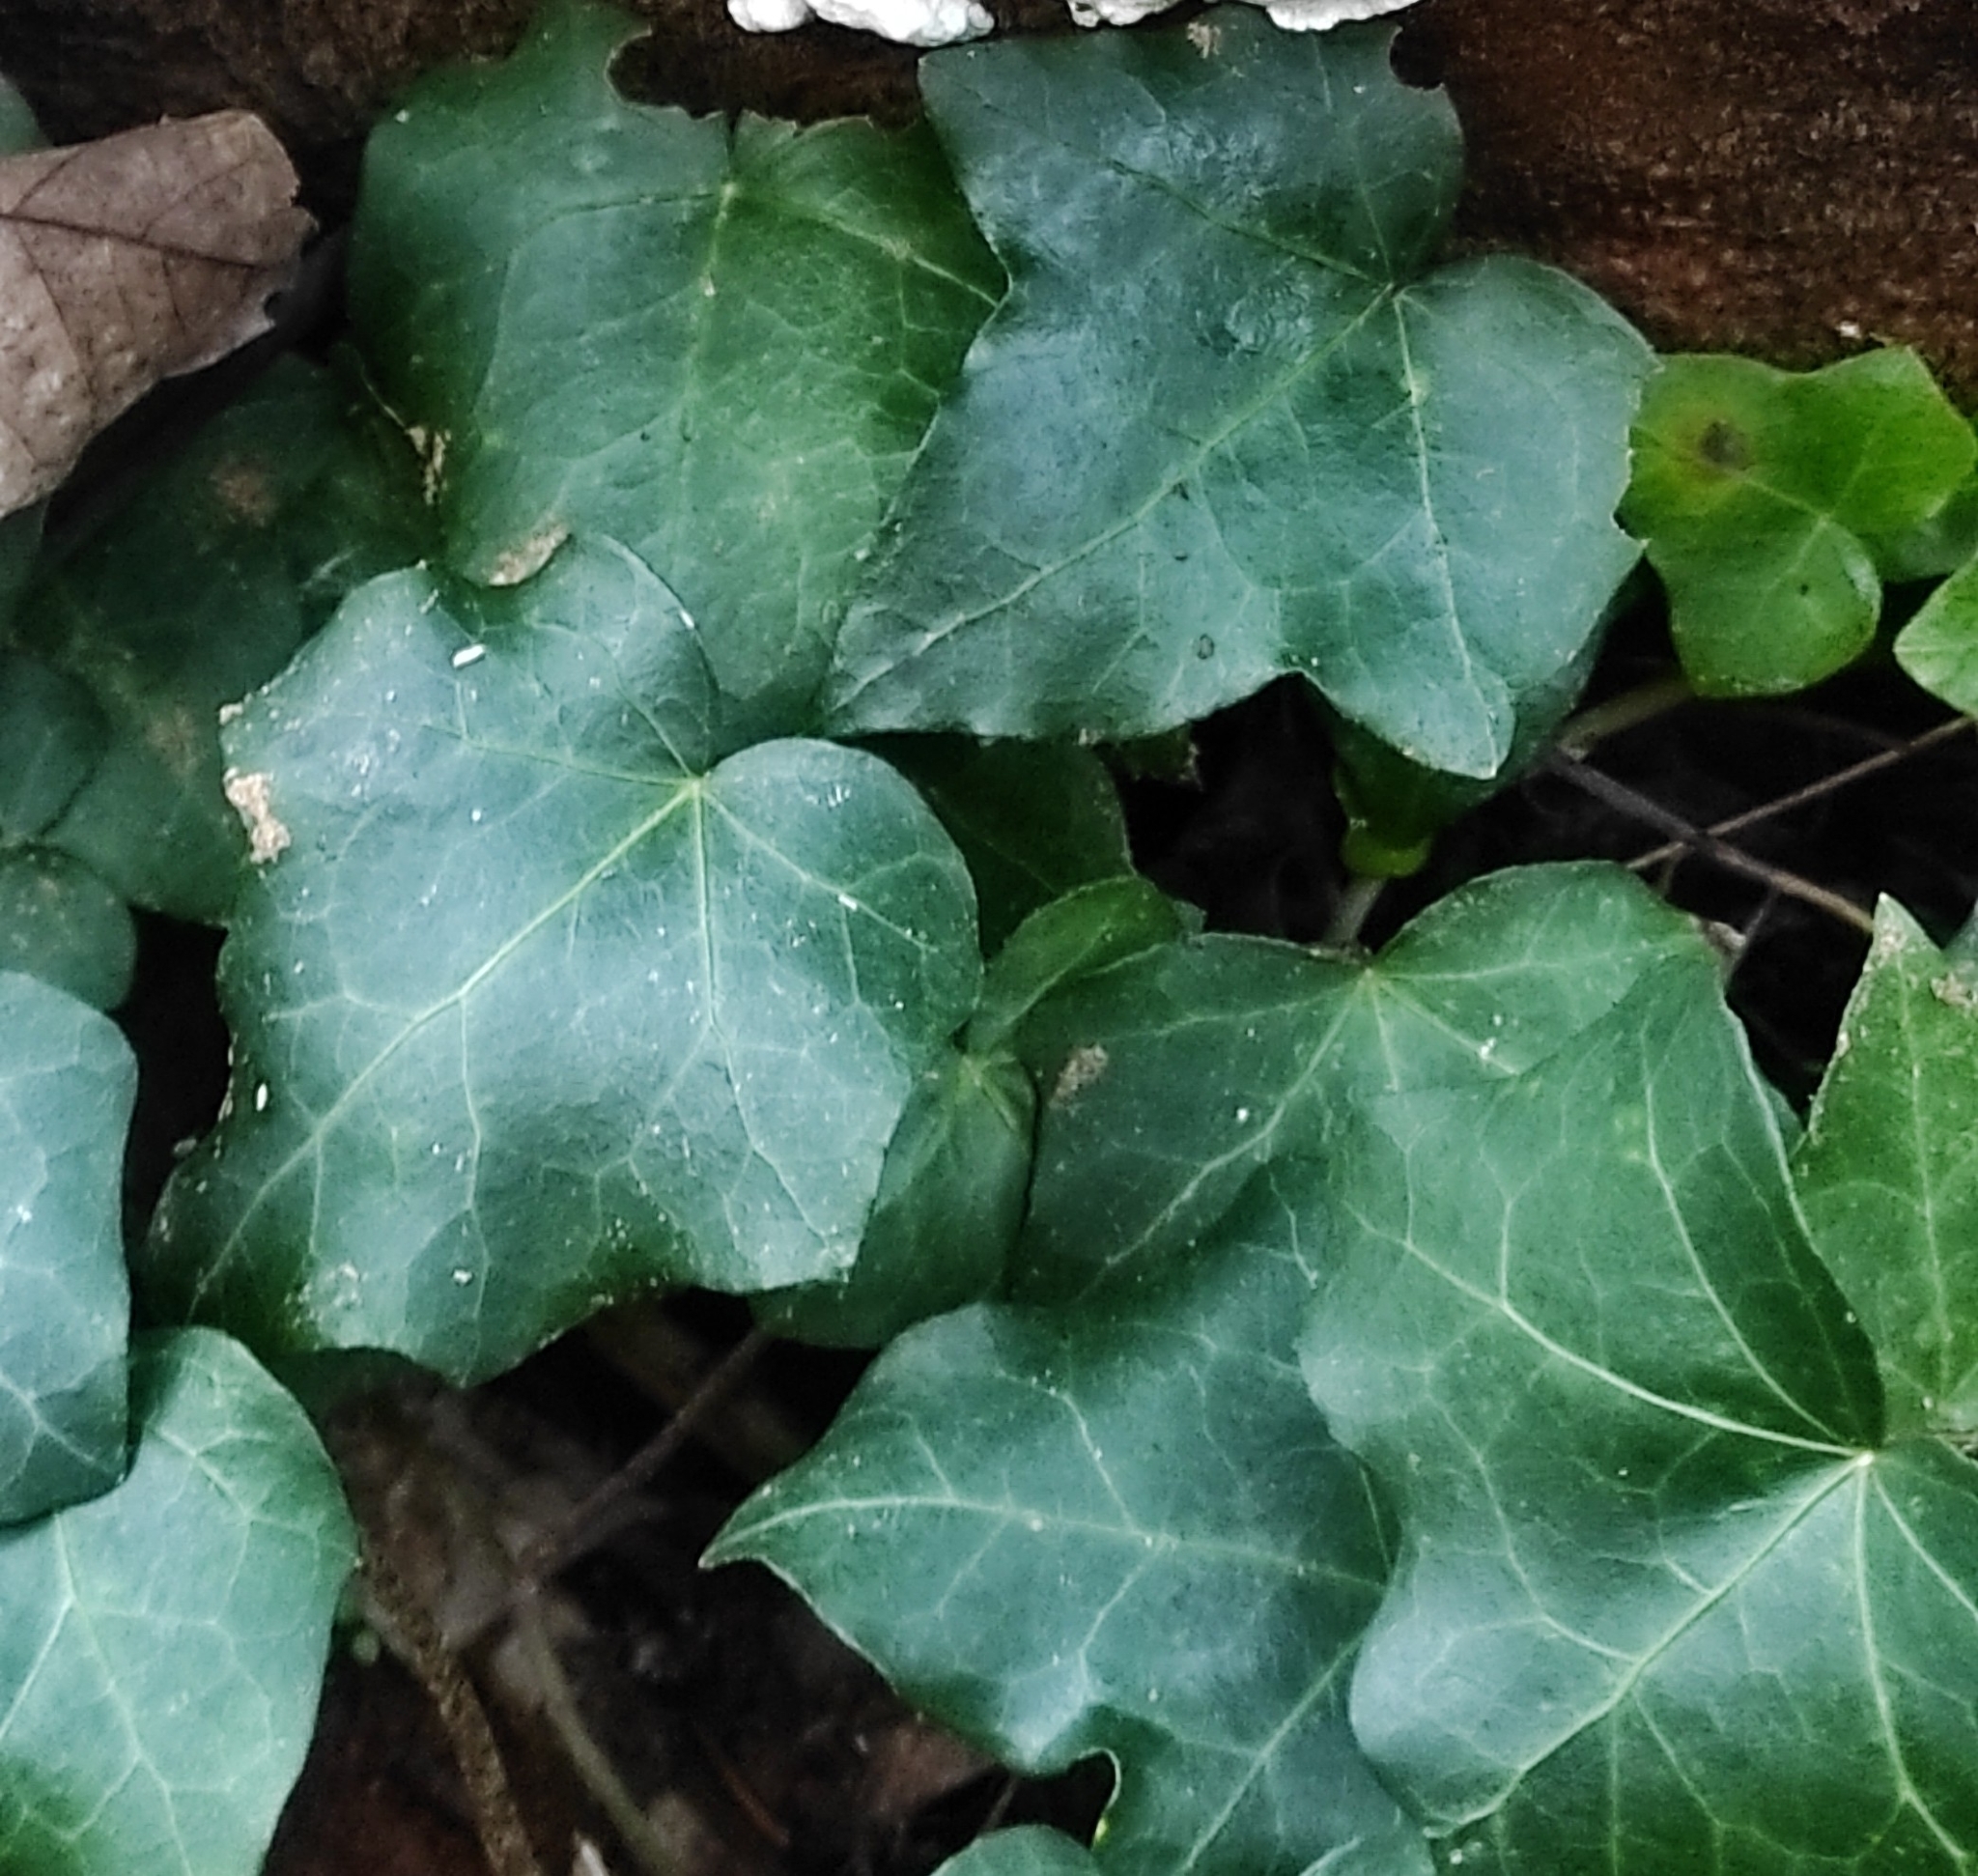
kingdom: Plantae
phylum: Tracheophyta
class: Magnoliopsida
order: Apiales
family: Araliaceae
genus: Hedera
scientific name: Hedera helix
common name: Ivy
